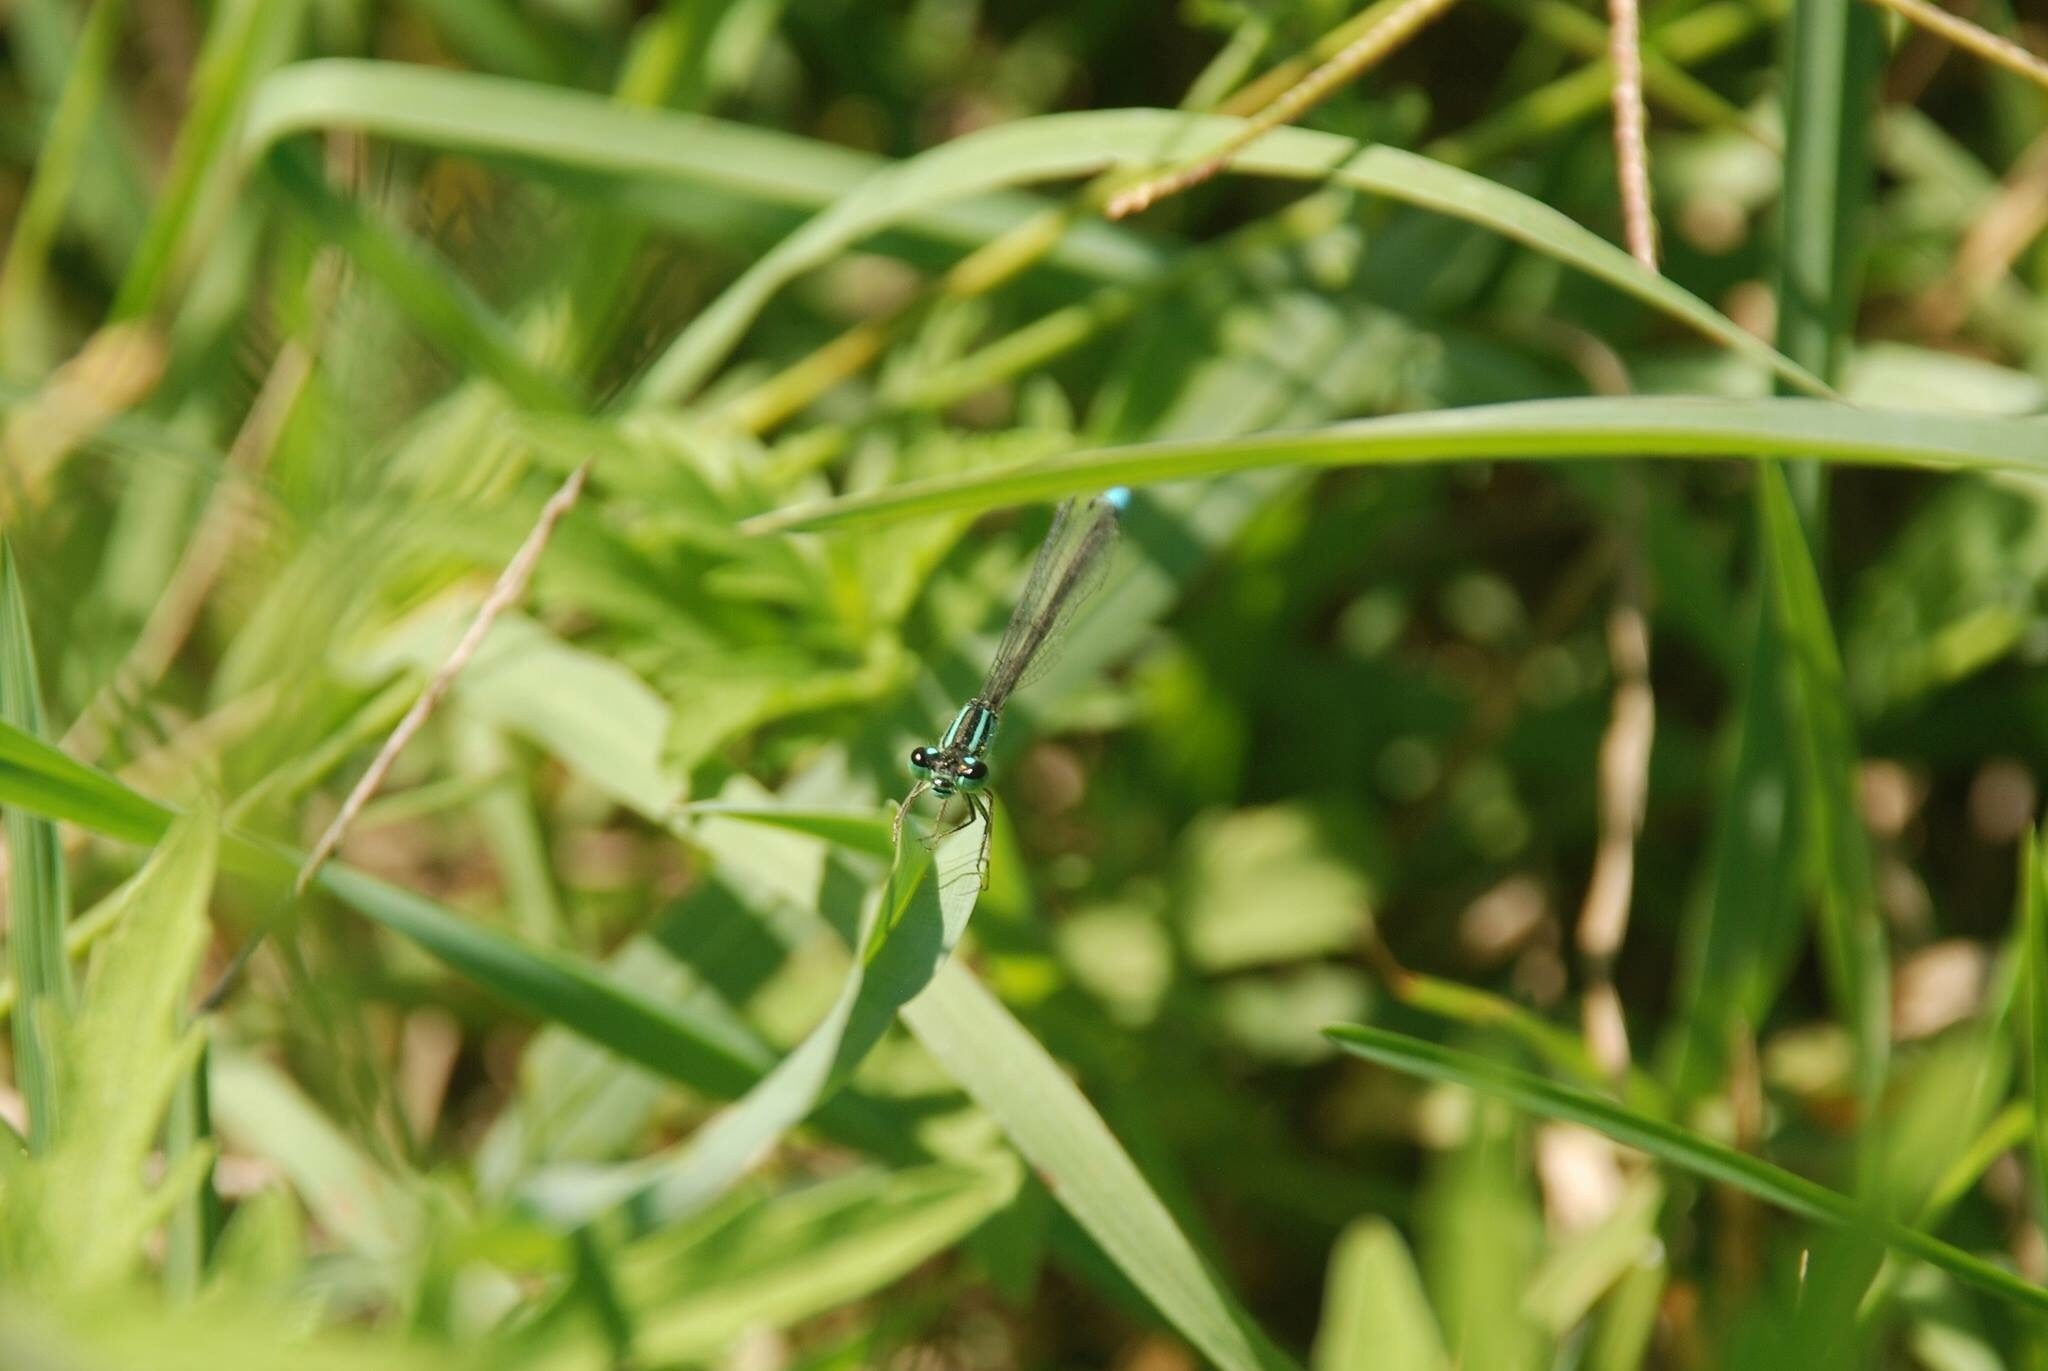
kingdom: Animalia
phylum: Arthropoda
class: Insecta
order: Odonata
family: Coenagrionidae
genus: Ischnura
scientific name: Ischnura elegans
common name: Blue-tailed damselfly
